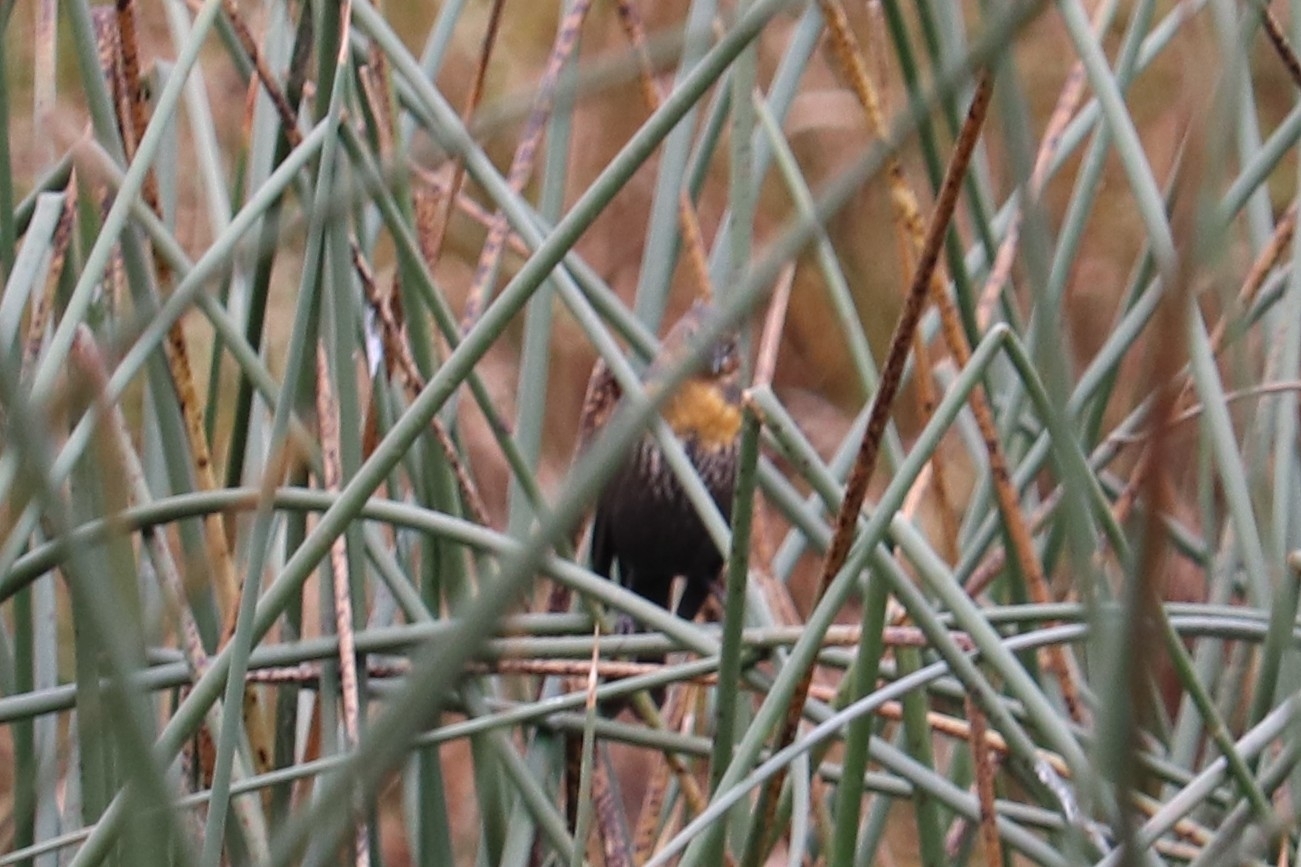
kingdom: Animalia
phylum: Chordata
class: Aves
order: Passeriformes
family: Icteridae
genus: Xanthocephalus
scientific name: Xanthocephalus xanthocephalus
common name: Yellow-headed blackbird
